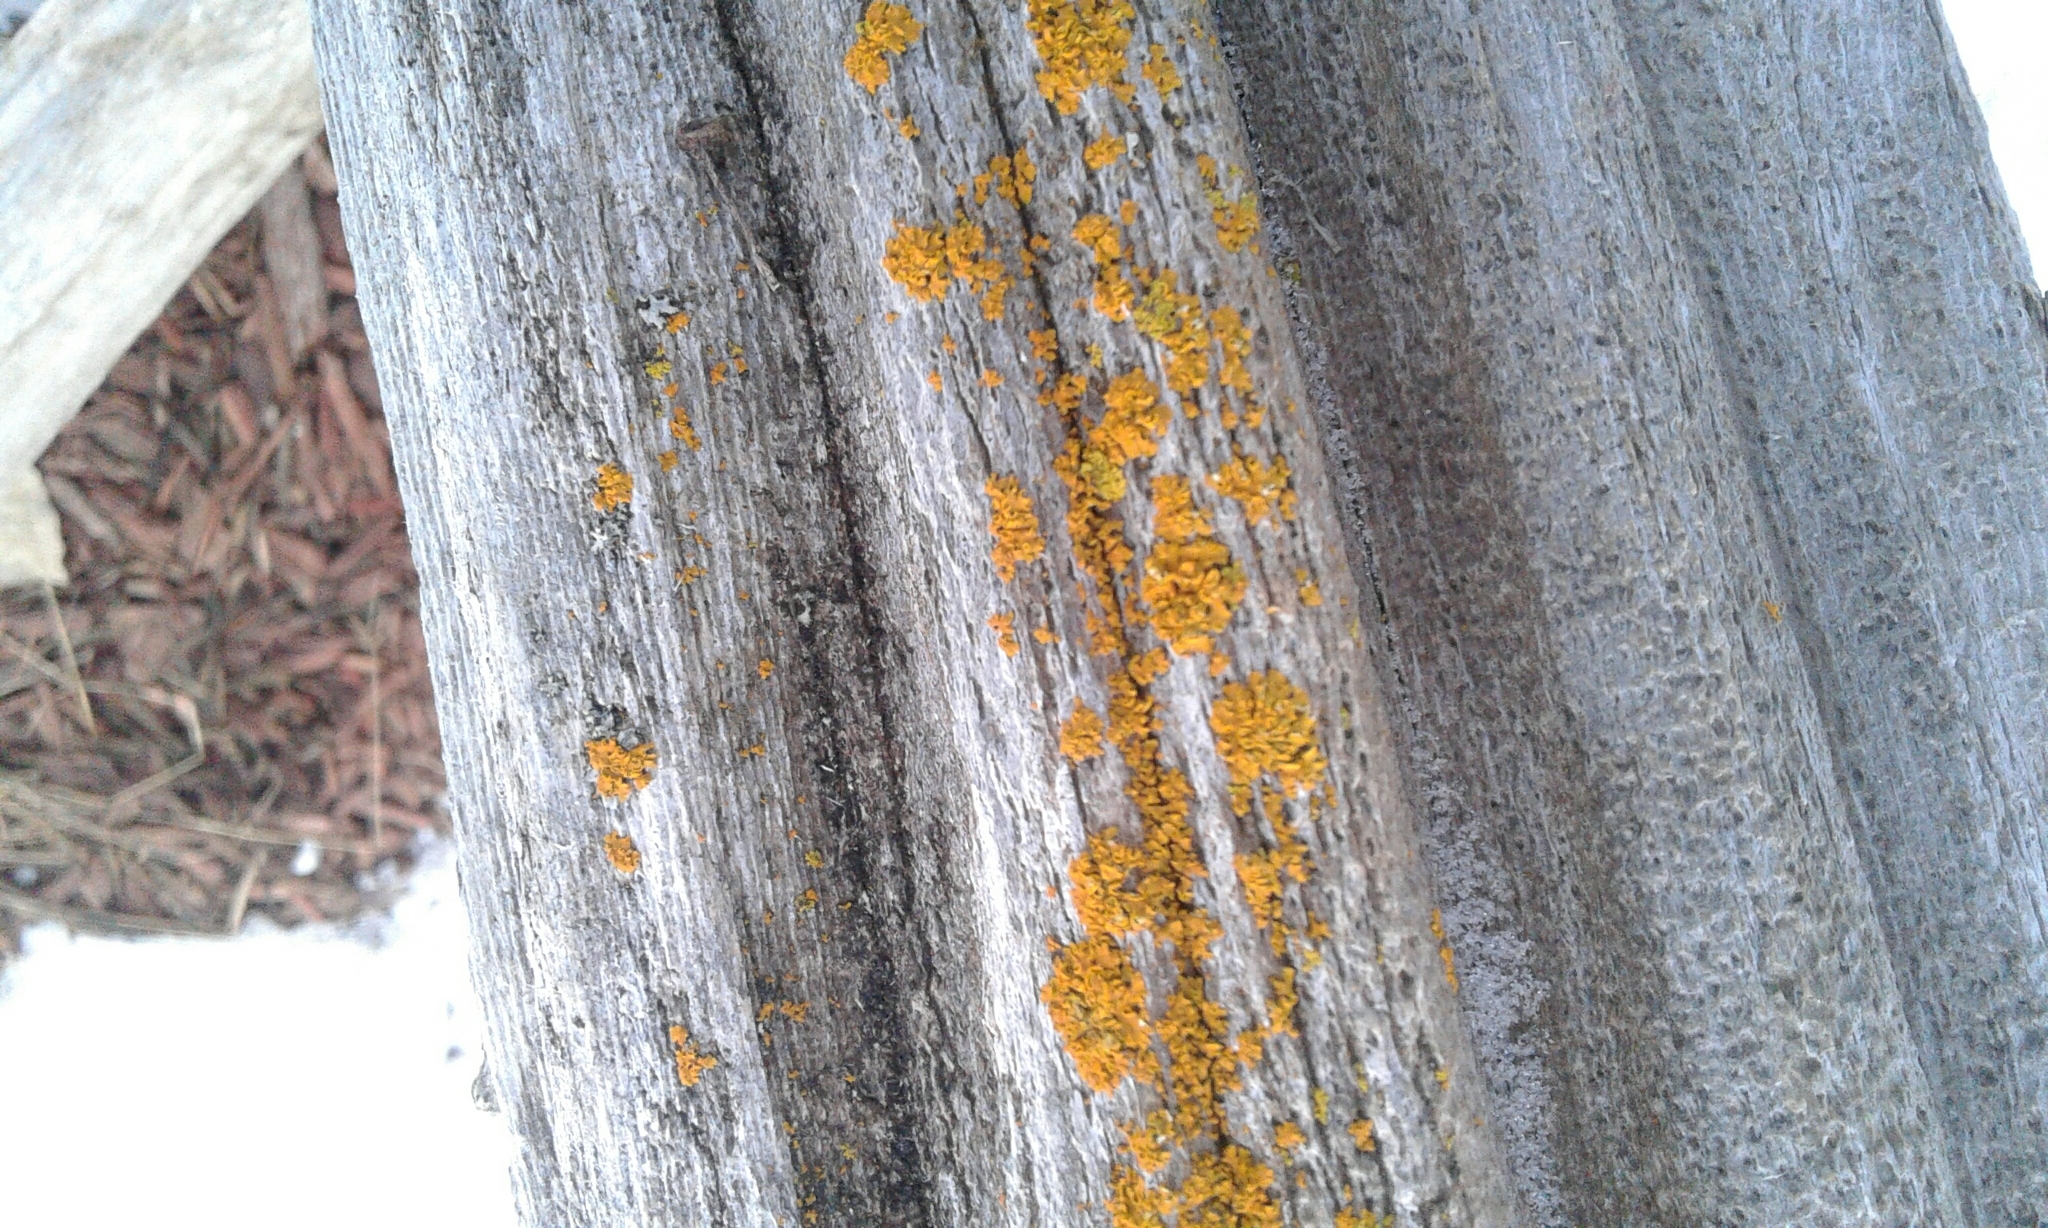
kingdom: Fungi
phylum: Ascomycota
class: Lecanoromycetes
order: Teloschistales
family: Teloschistaceae
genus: Oxneria
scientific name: Oxneria fallax
